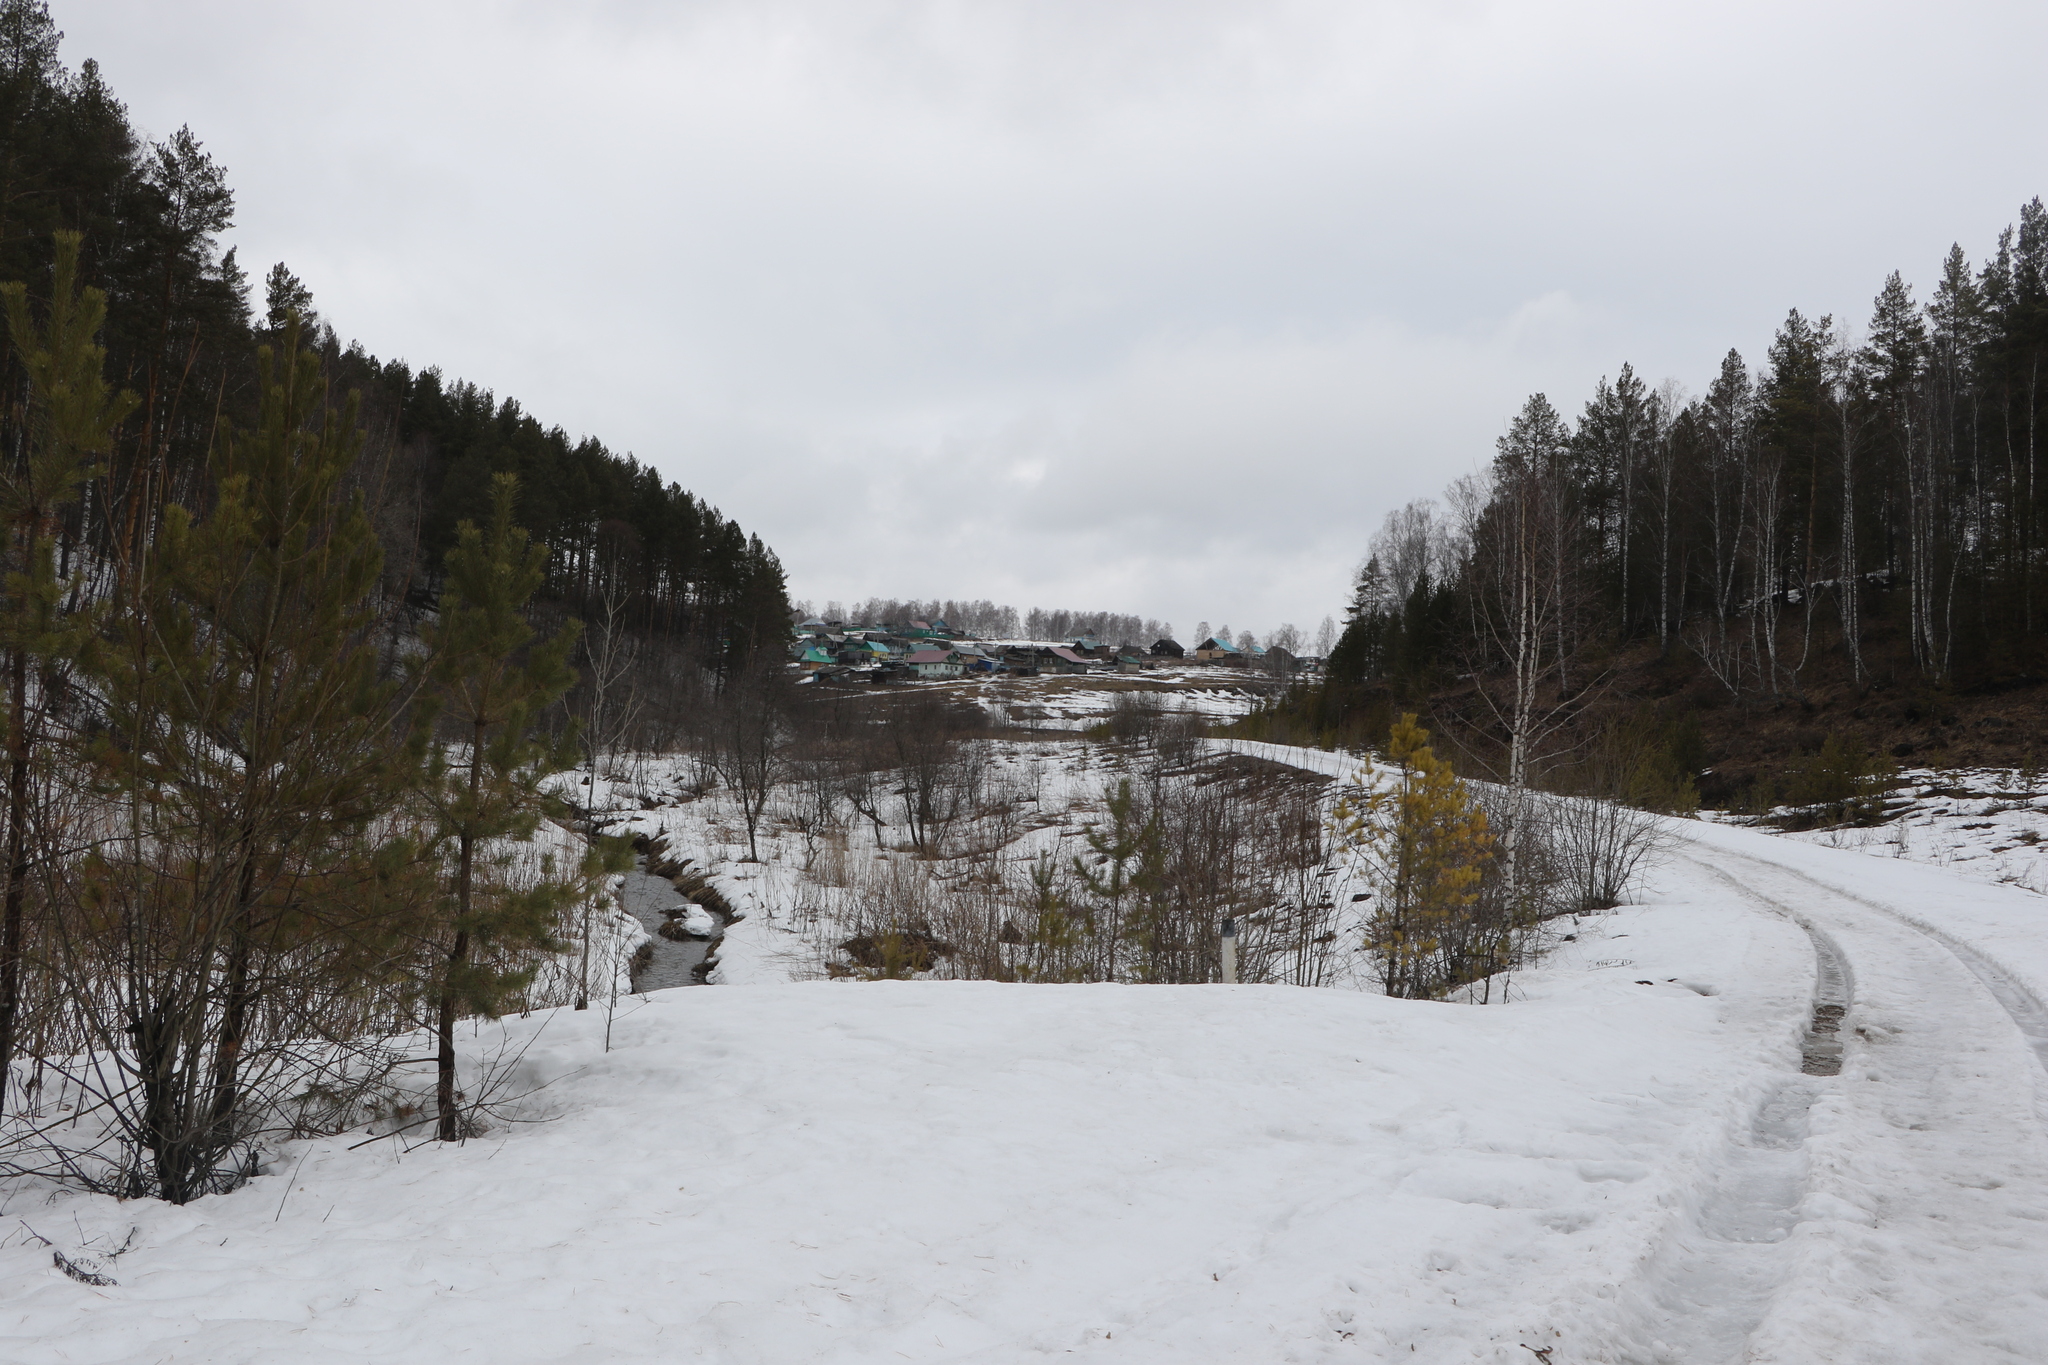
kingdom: Plantae
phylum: Tracheophyta
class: Pinopsida
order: Pinales
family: Pinaceae
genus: Pinus
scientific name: Pinus sylvestris
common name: Scots pine
